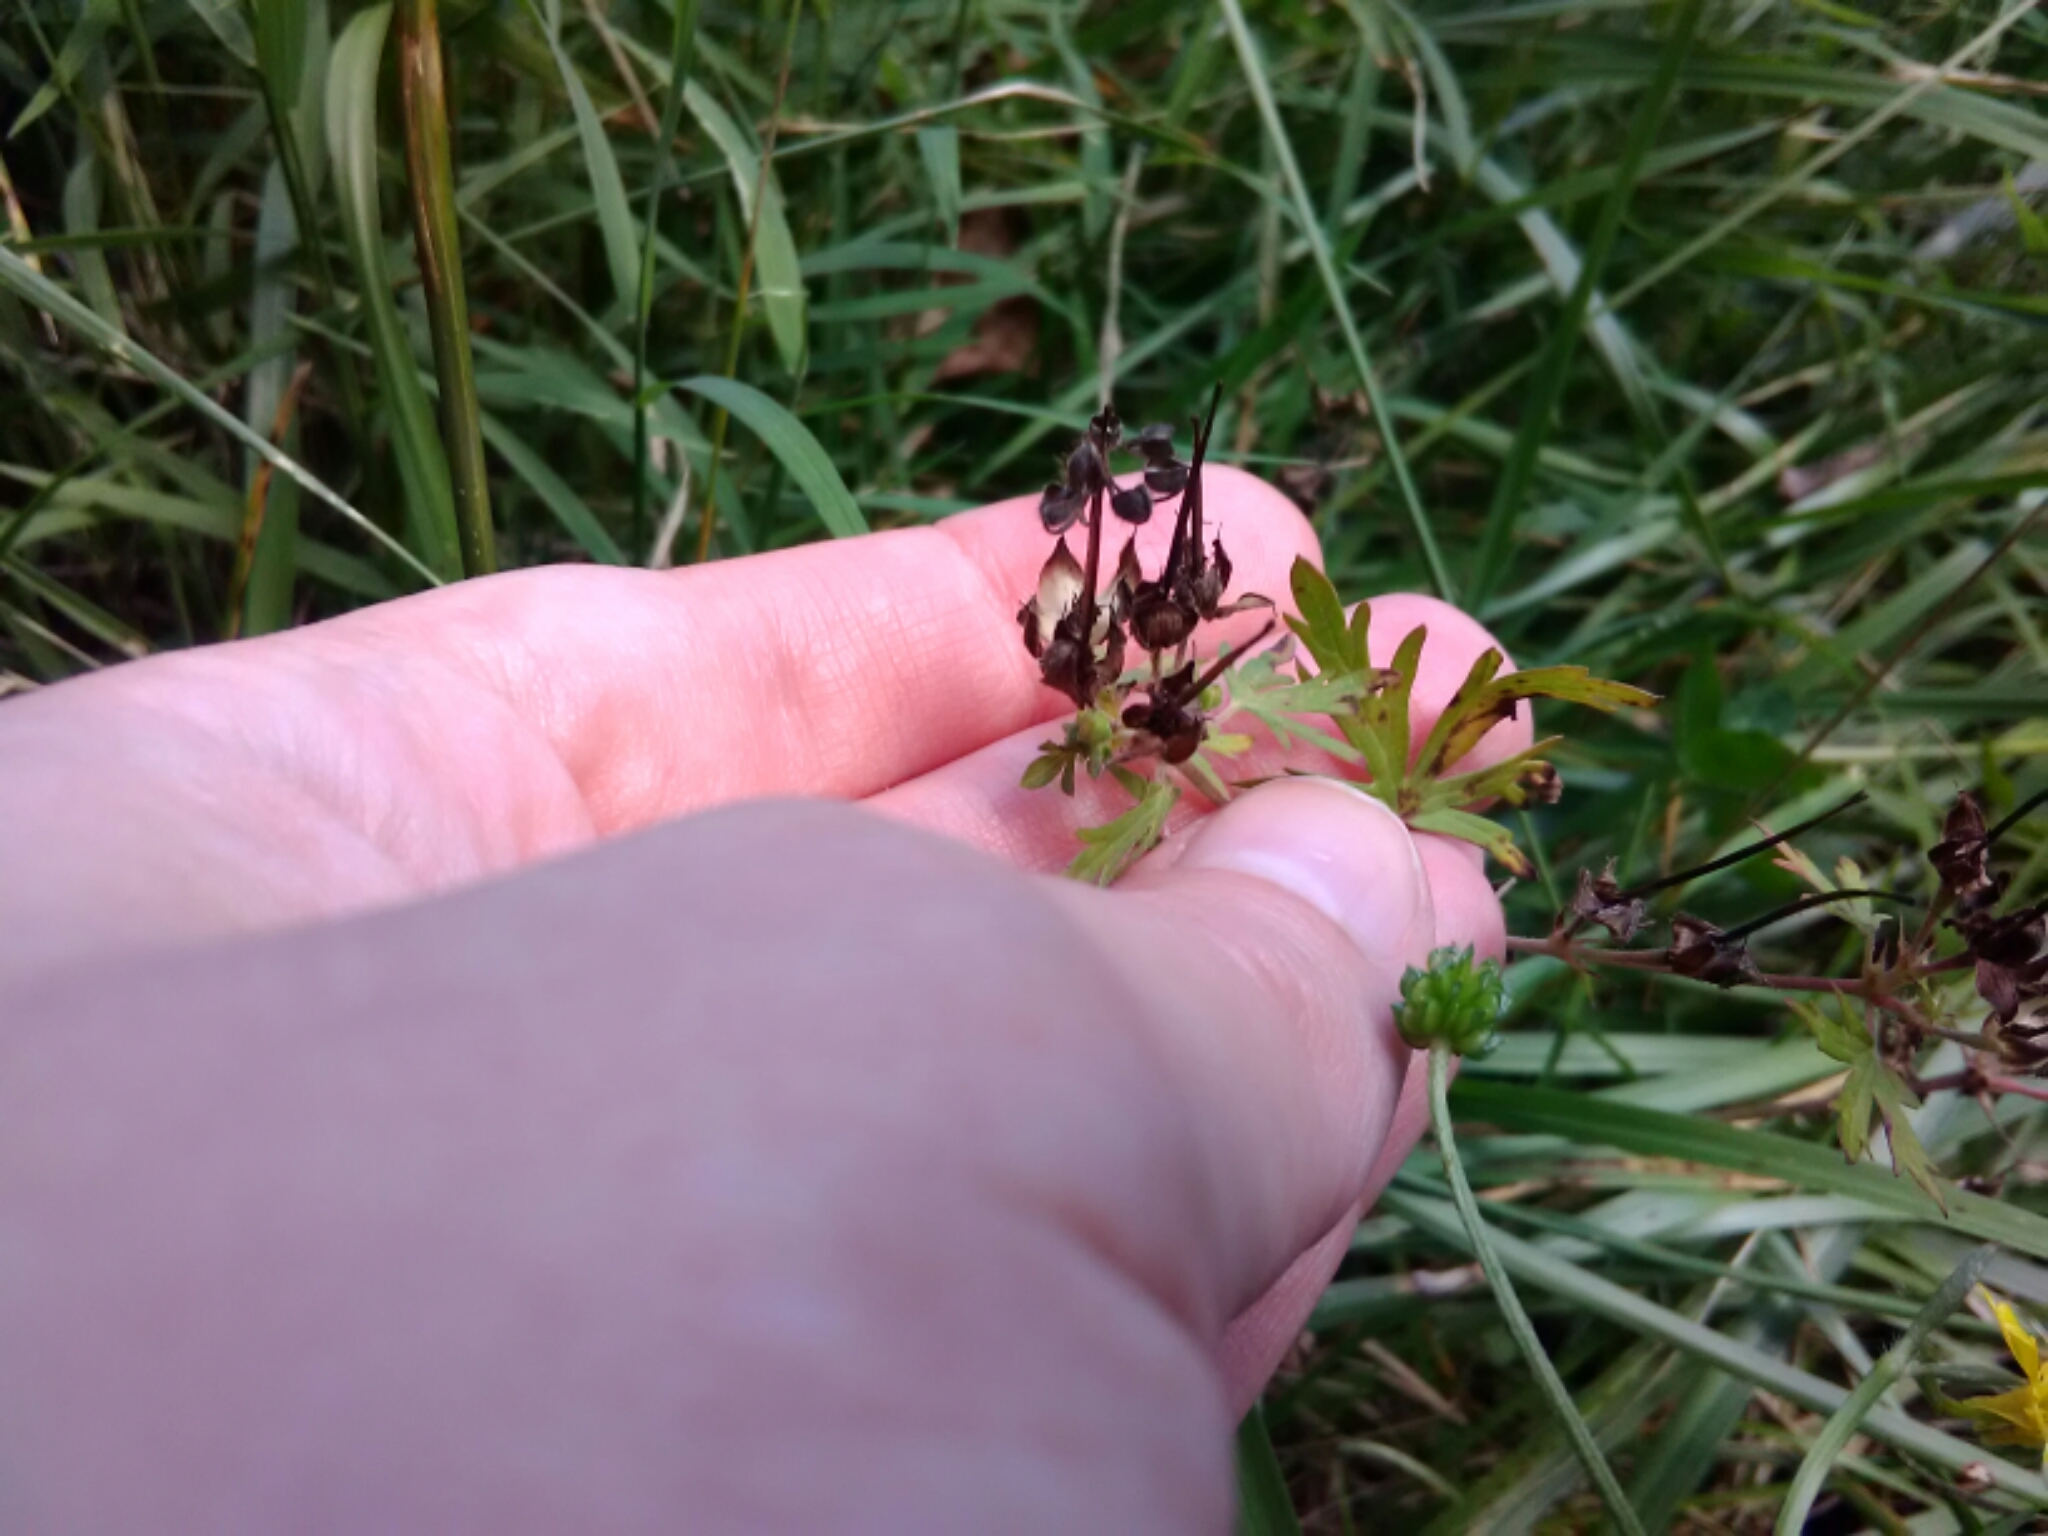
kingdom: Plantae
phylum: Tracheophyta
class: Magnoliopsida
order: Geraniales
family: Geraniaceae
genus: Geranium
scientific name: Geranium carolinianum
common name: Carolina crane's-bill
